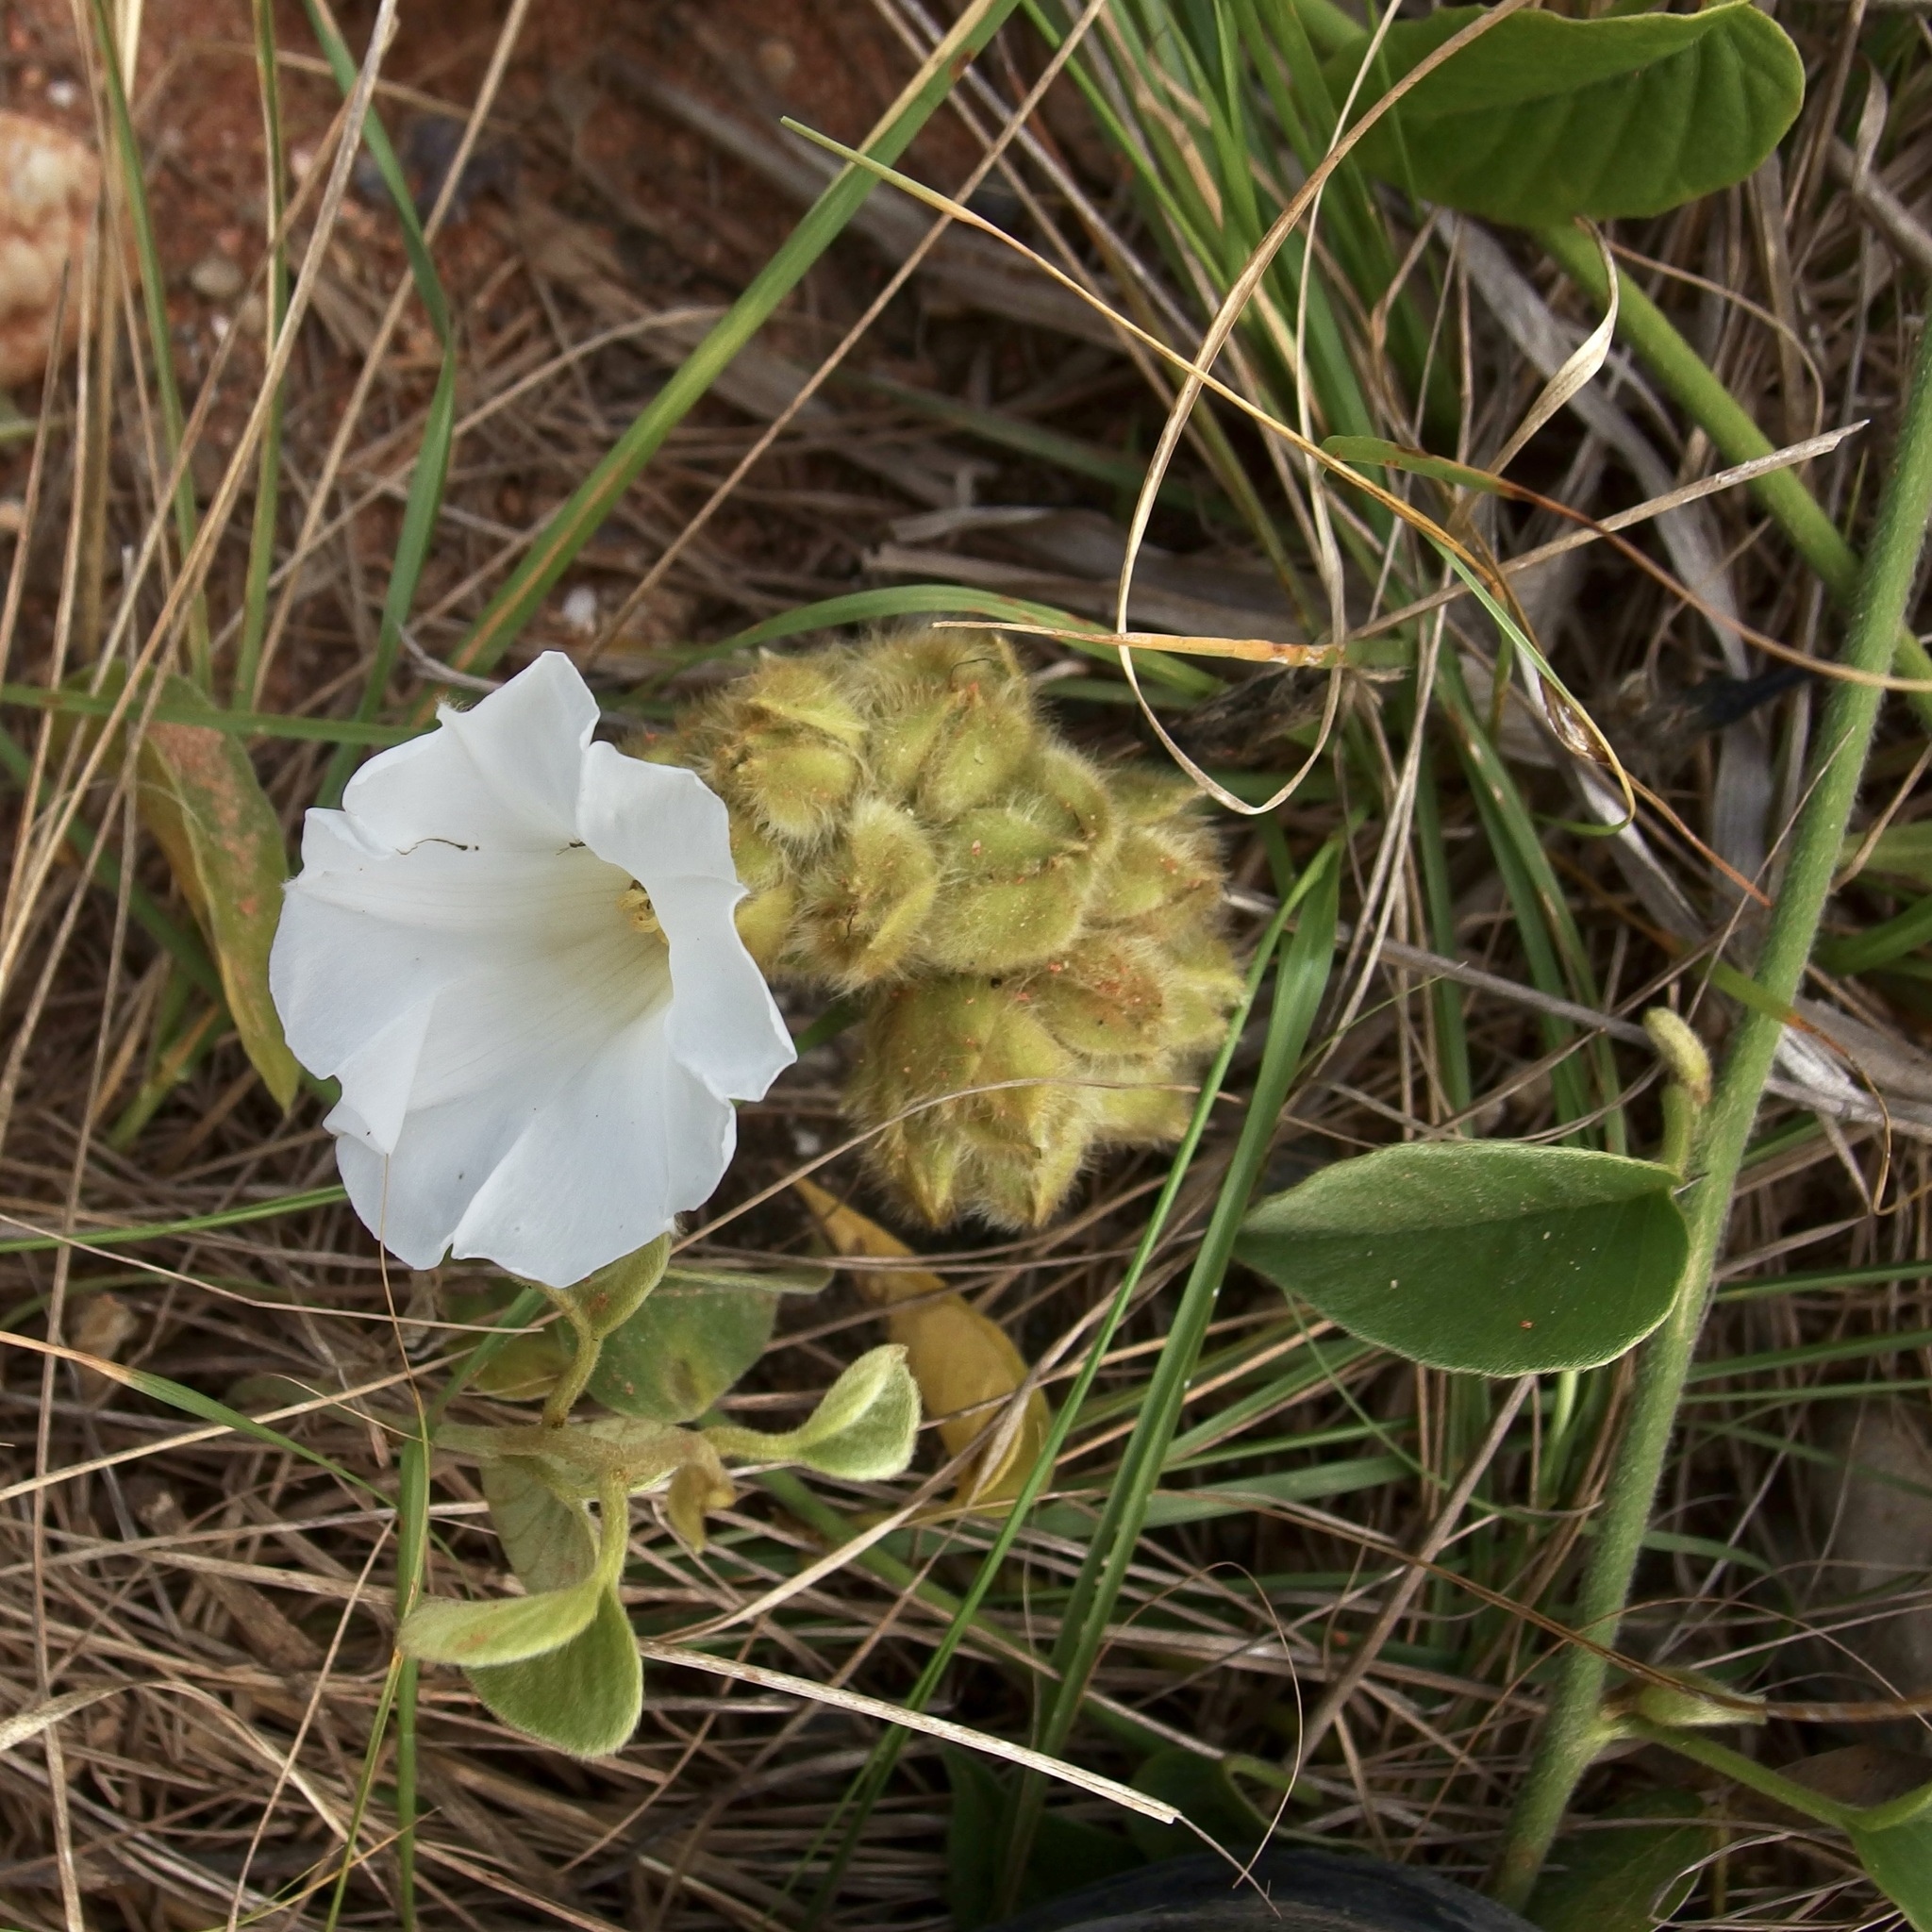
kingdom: Plantae
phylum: Tracheophyta
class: Magnoliopsida
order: Solanales
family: Convolvulaceae
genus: Odonellia
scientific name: Odonellia hirtiflora
